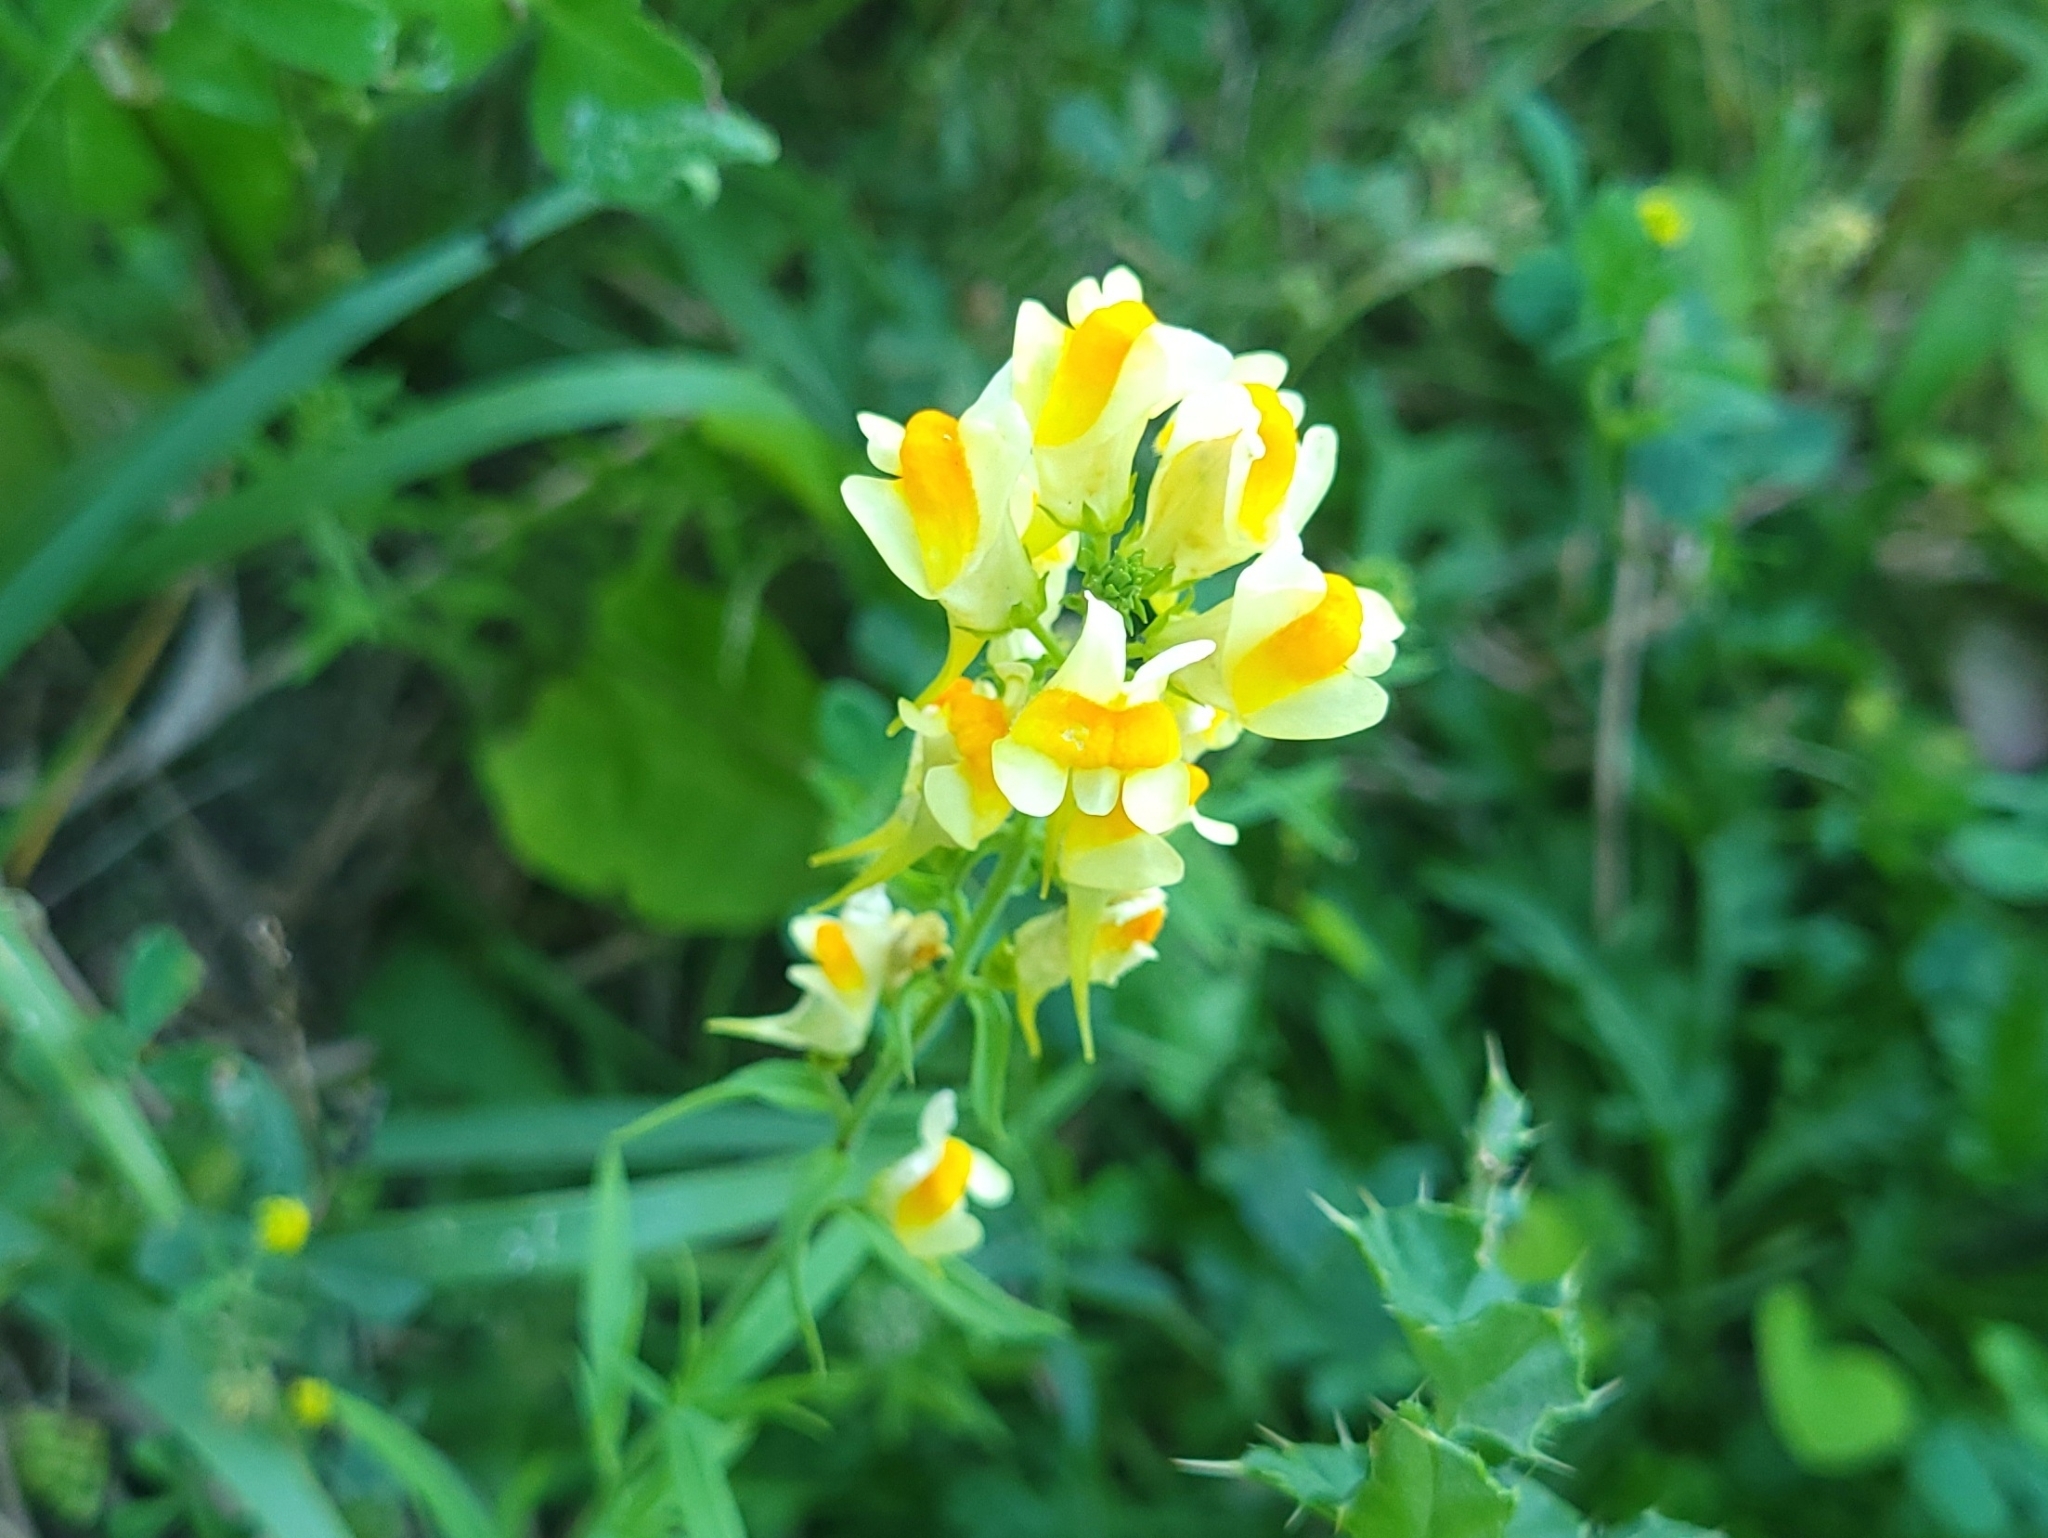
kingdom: Plantae
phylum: Tracheophyta
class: Magnoliopsida
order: Lamiales
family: Plantaginaceae
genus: Linaria
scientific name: Linaria vulgaris
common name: Butter and eggs
